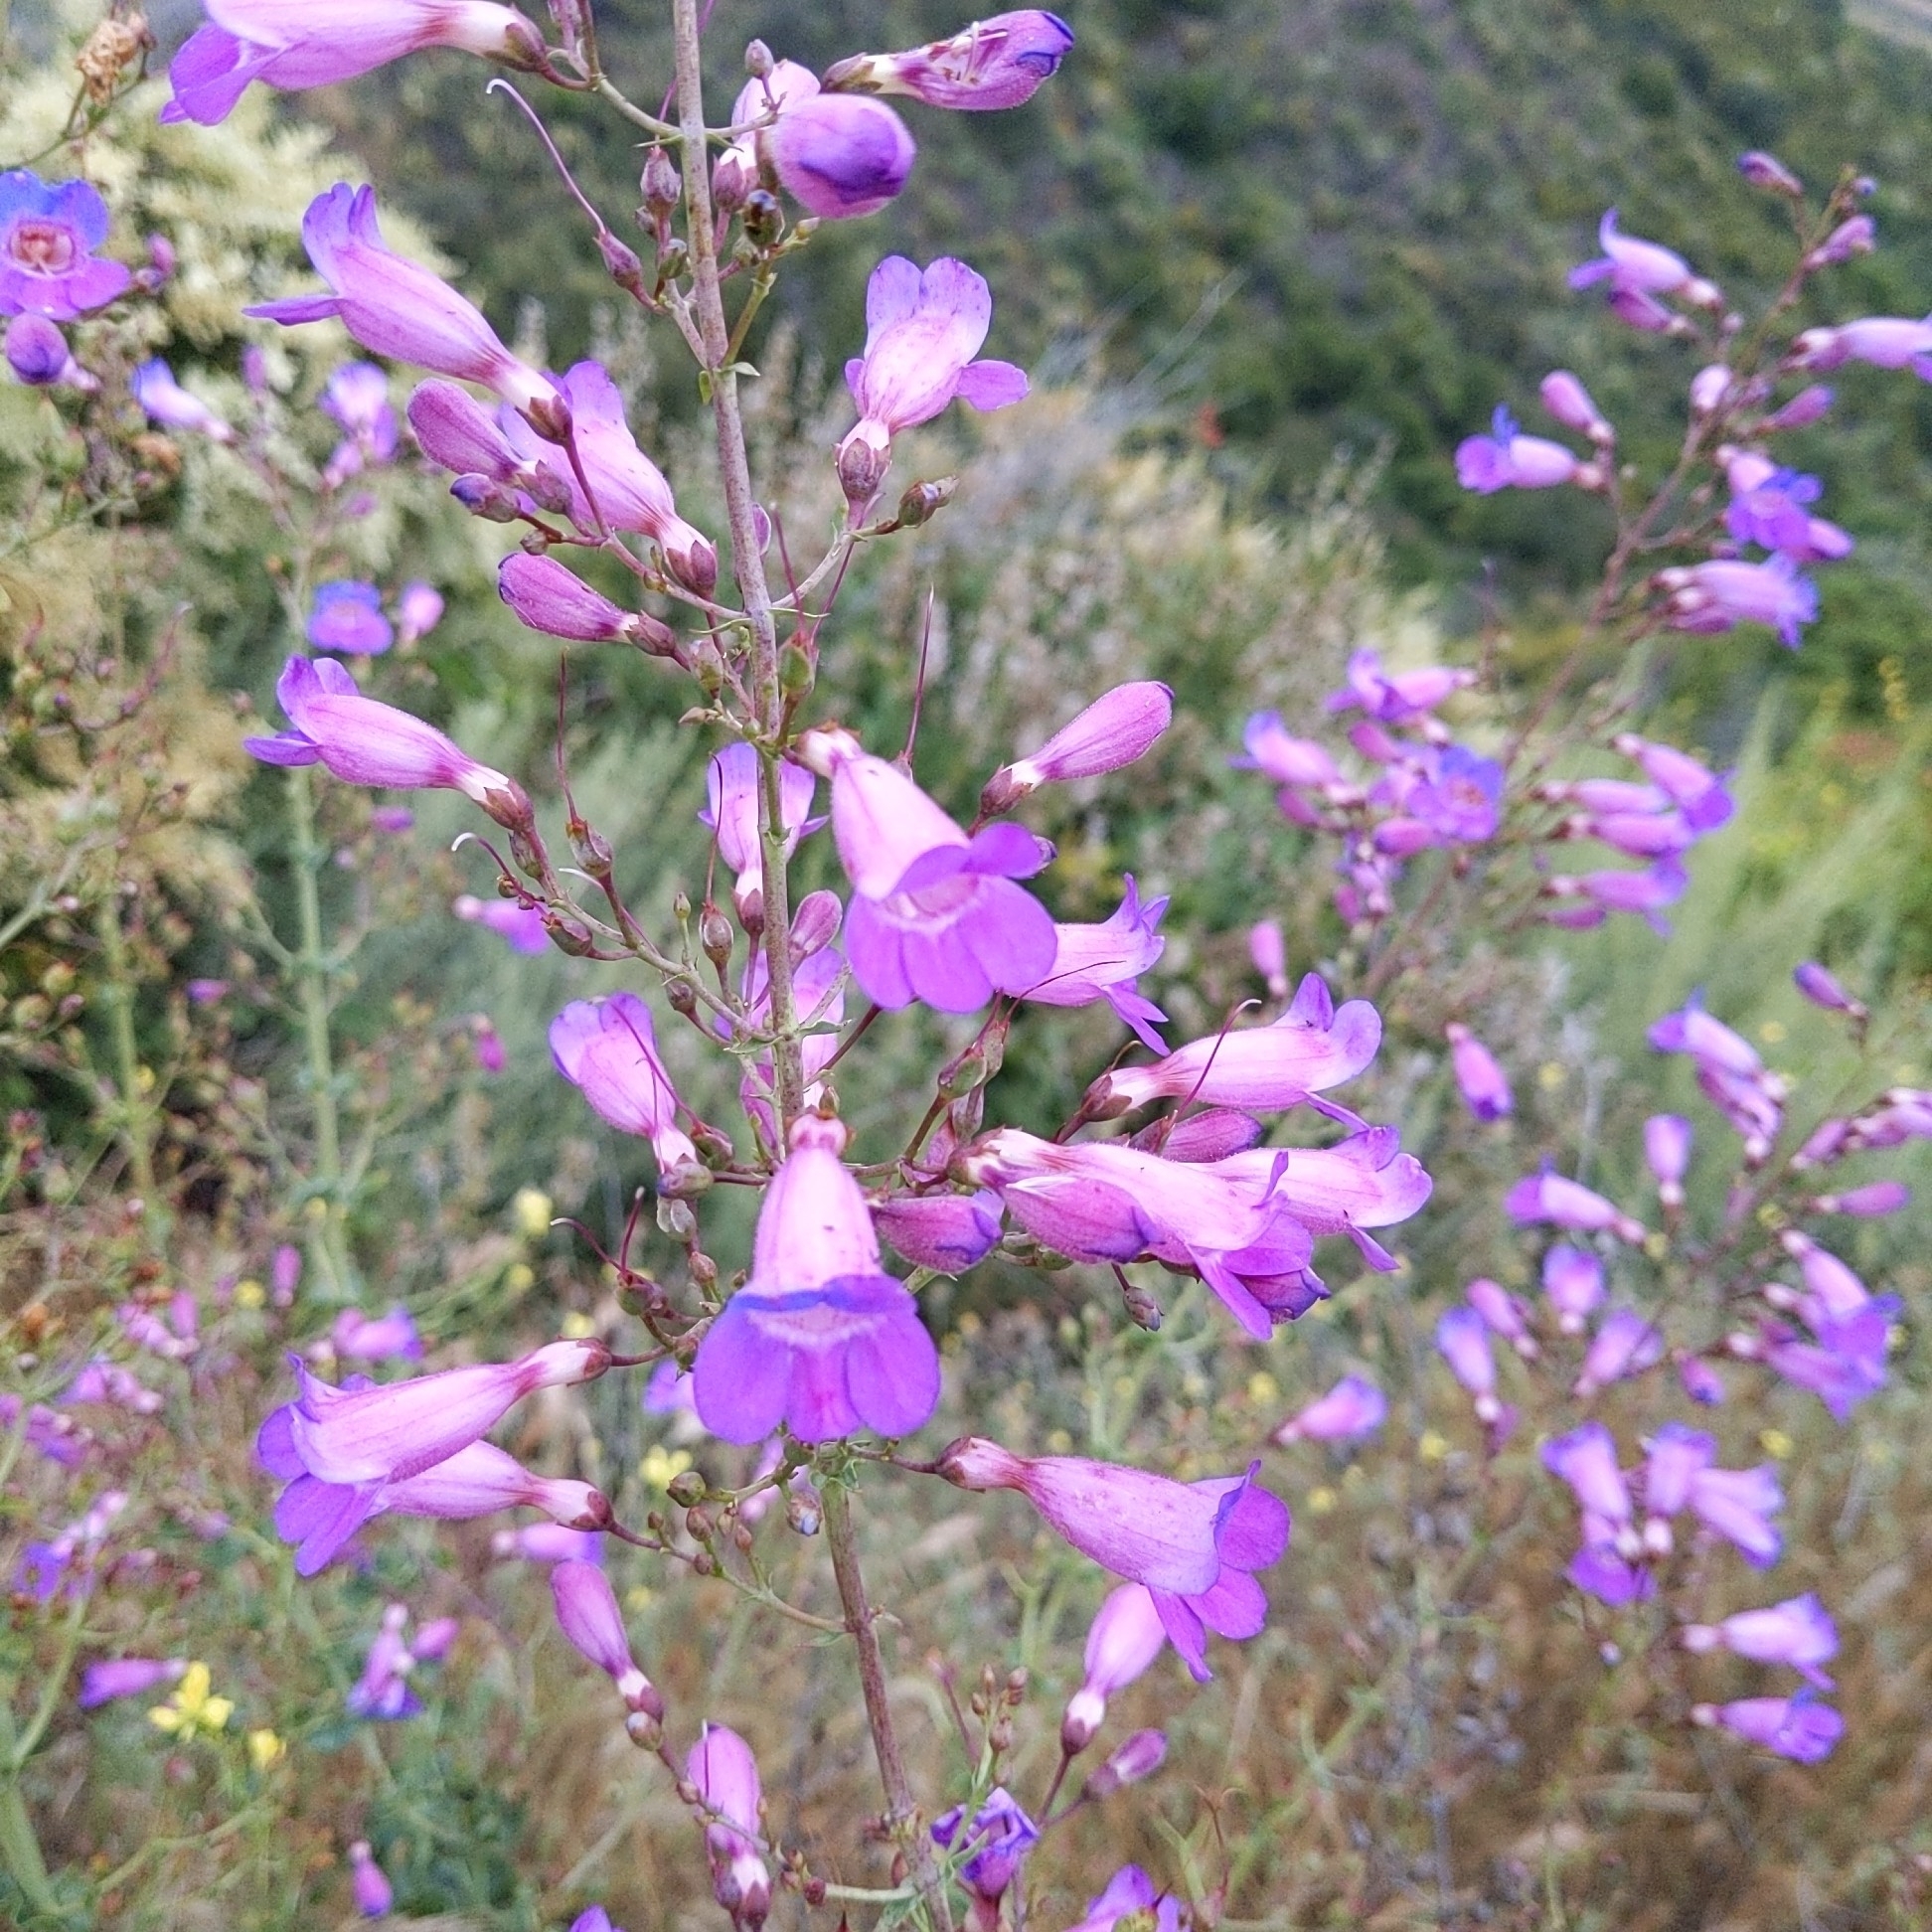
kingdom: Plantae
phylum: Tracheophyta
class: Magnoliopsida
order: Lamiales
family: Plantaginaceae
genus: Penstemon
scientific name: Penstemon spectabilis
